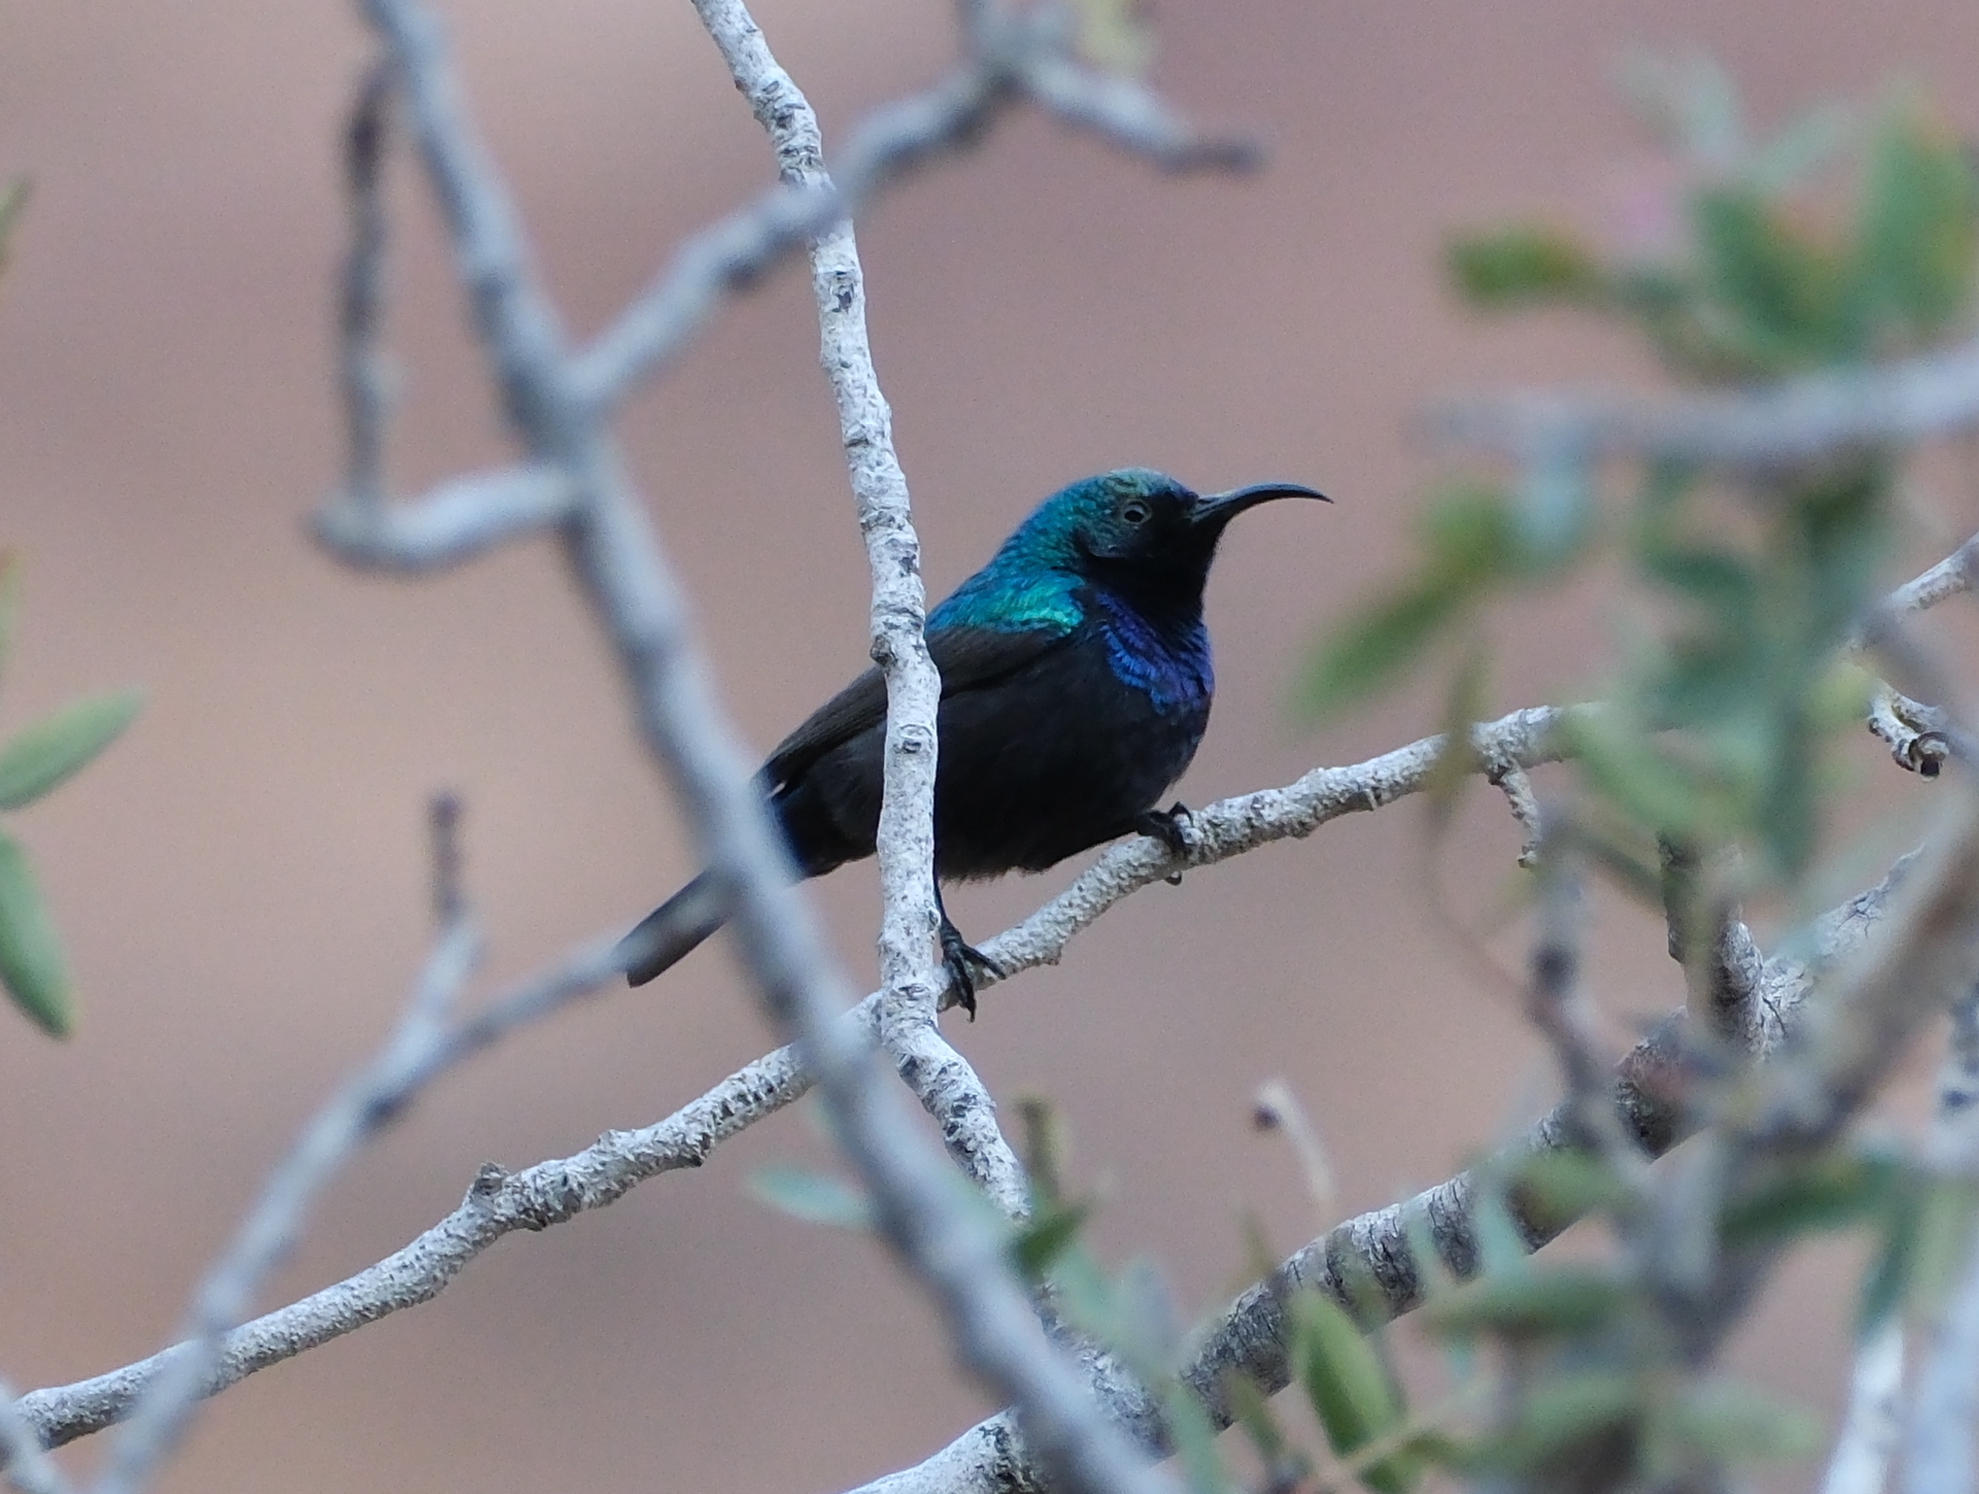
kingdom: Animalia
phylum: Chordata
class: Aves
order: Passeriformes
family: Nectariniidae
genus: Cinnyris
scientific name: Cinnyris osea
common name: Palestine sunbird
